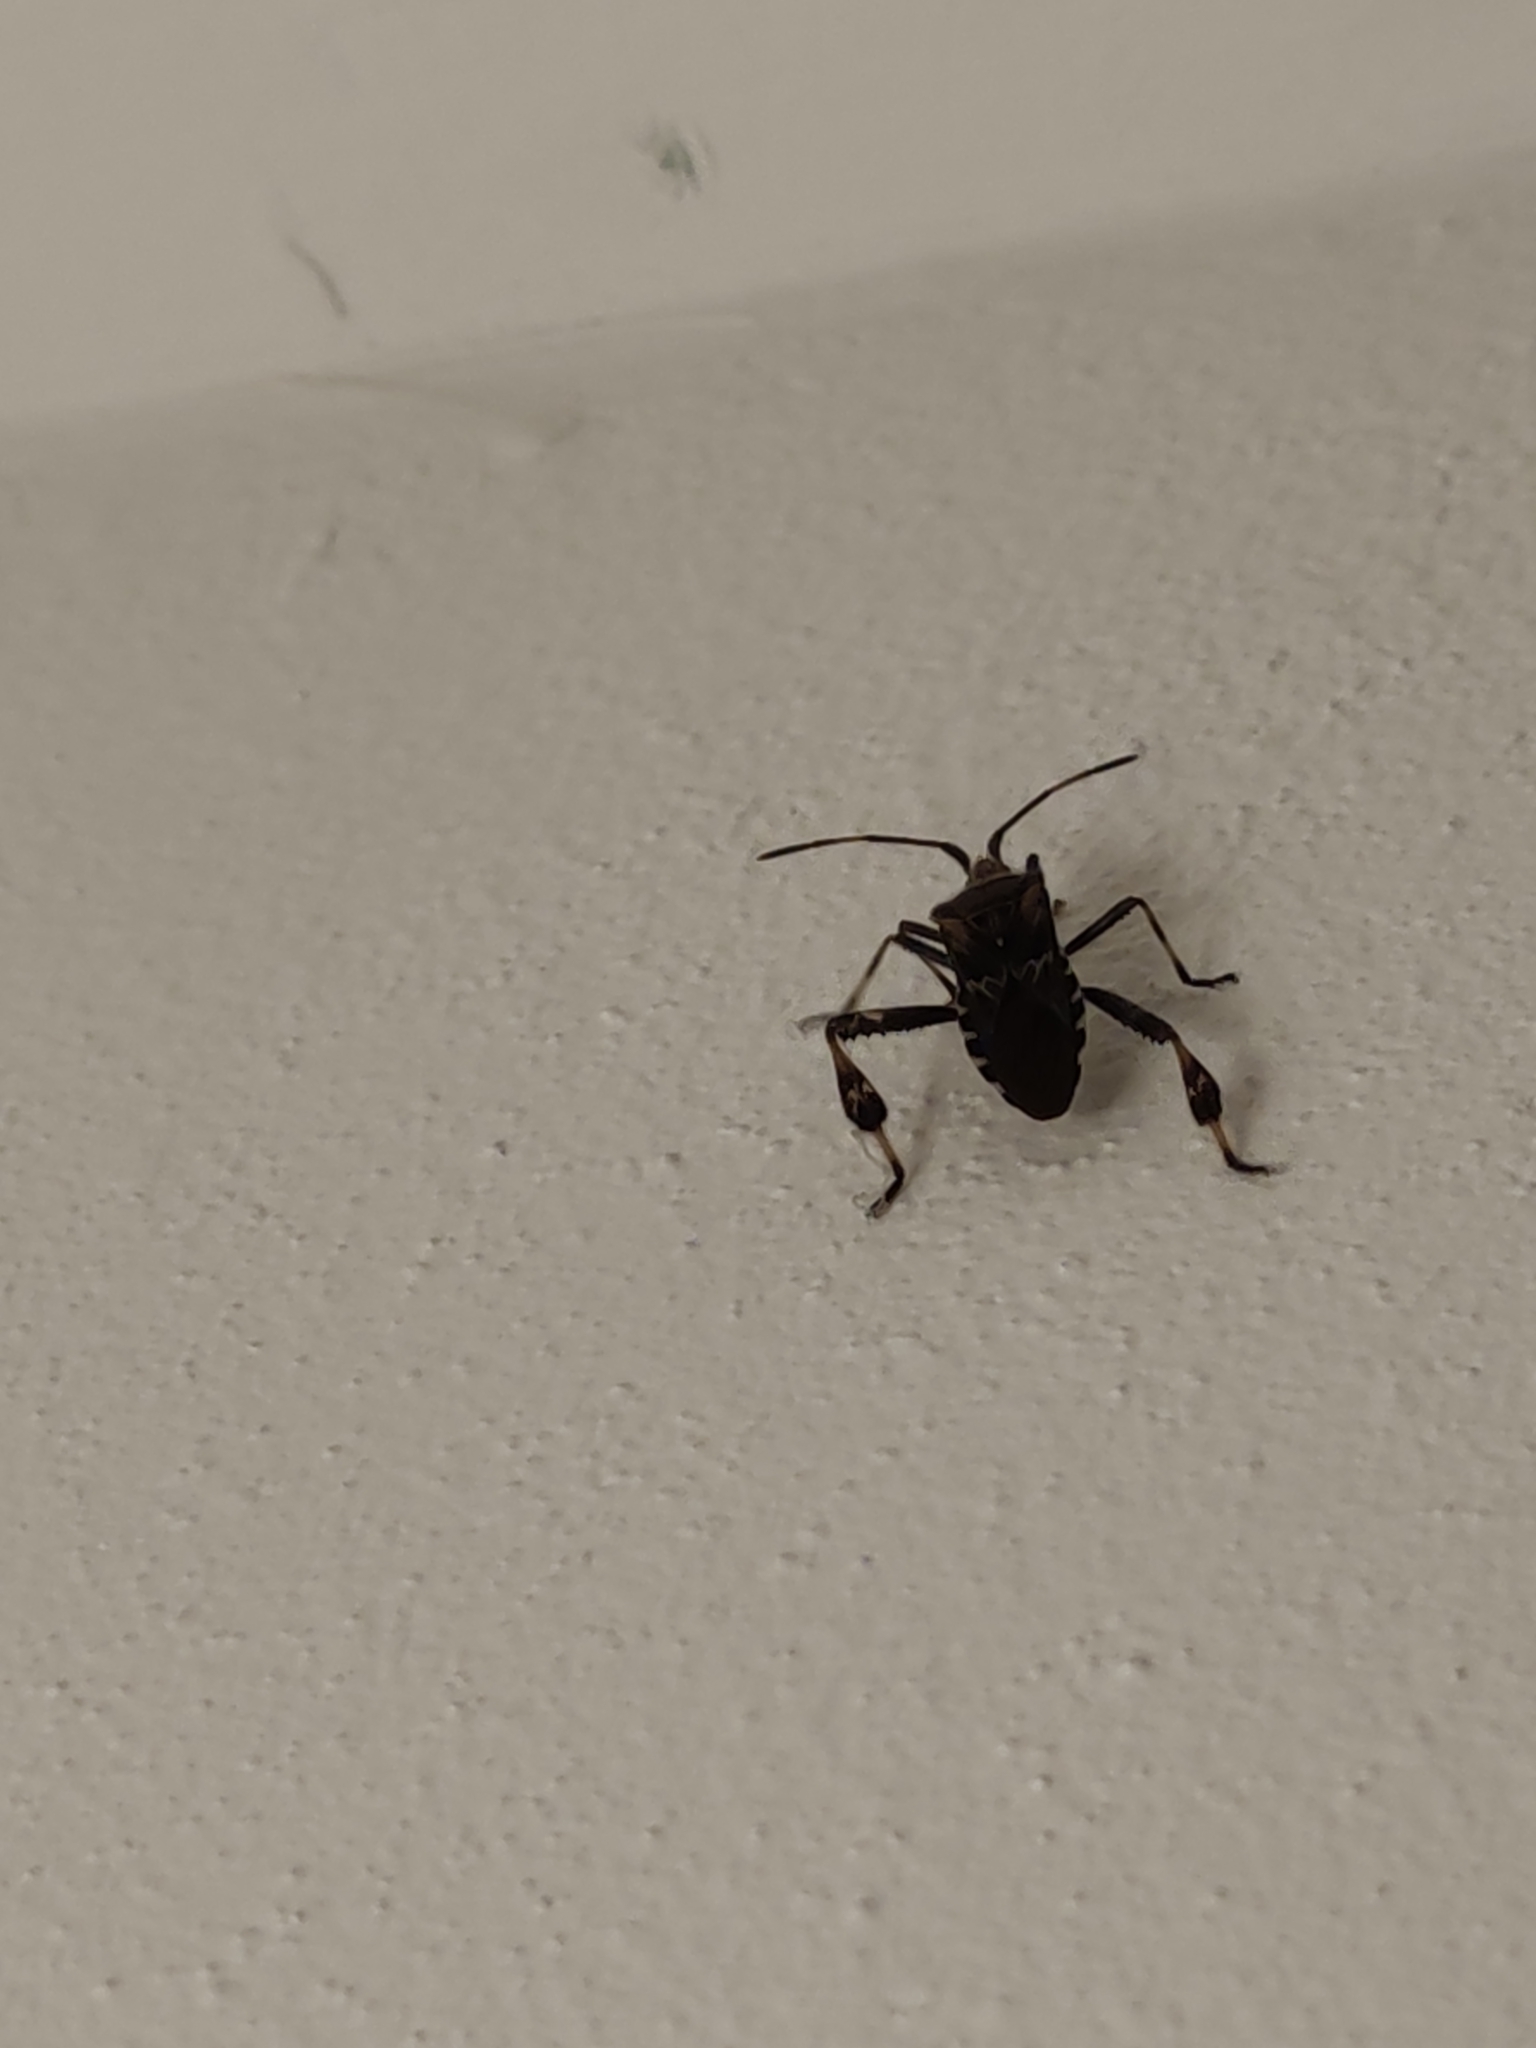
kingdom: Animalia
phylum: Arthropoda
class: Insecta
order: Hemiptera
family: Coreidae
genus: Leptoglossus
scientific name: Leptoglossus occidentalis
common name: Western conifer-seed bug
